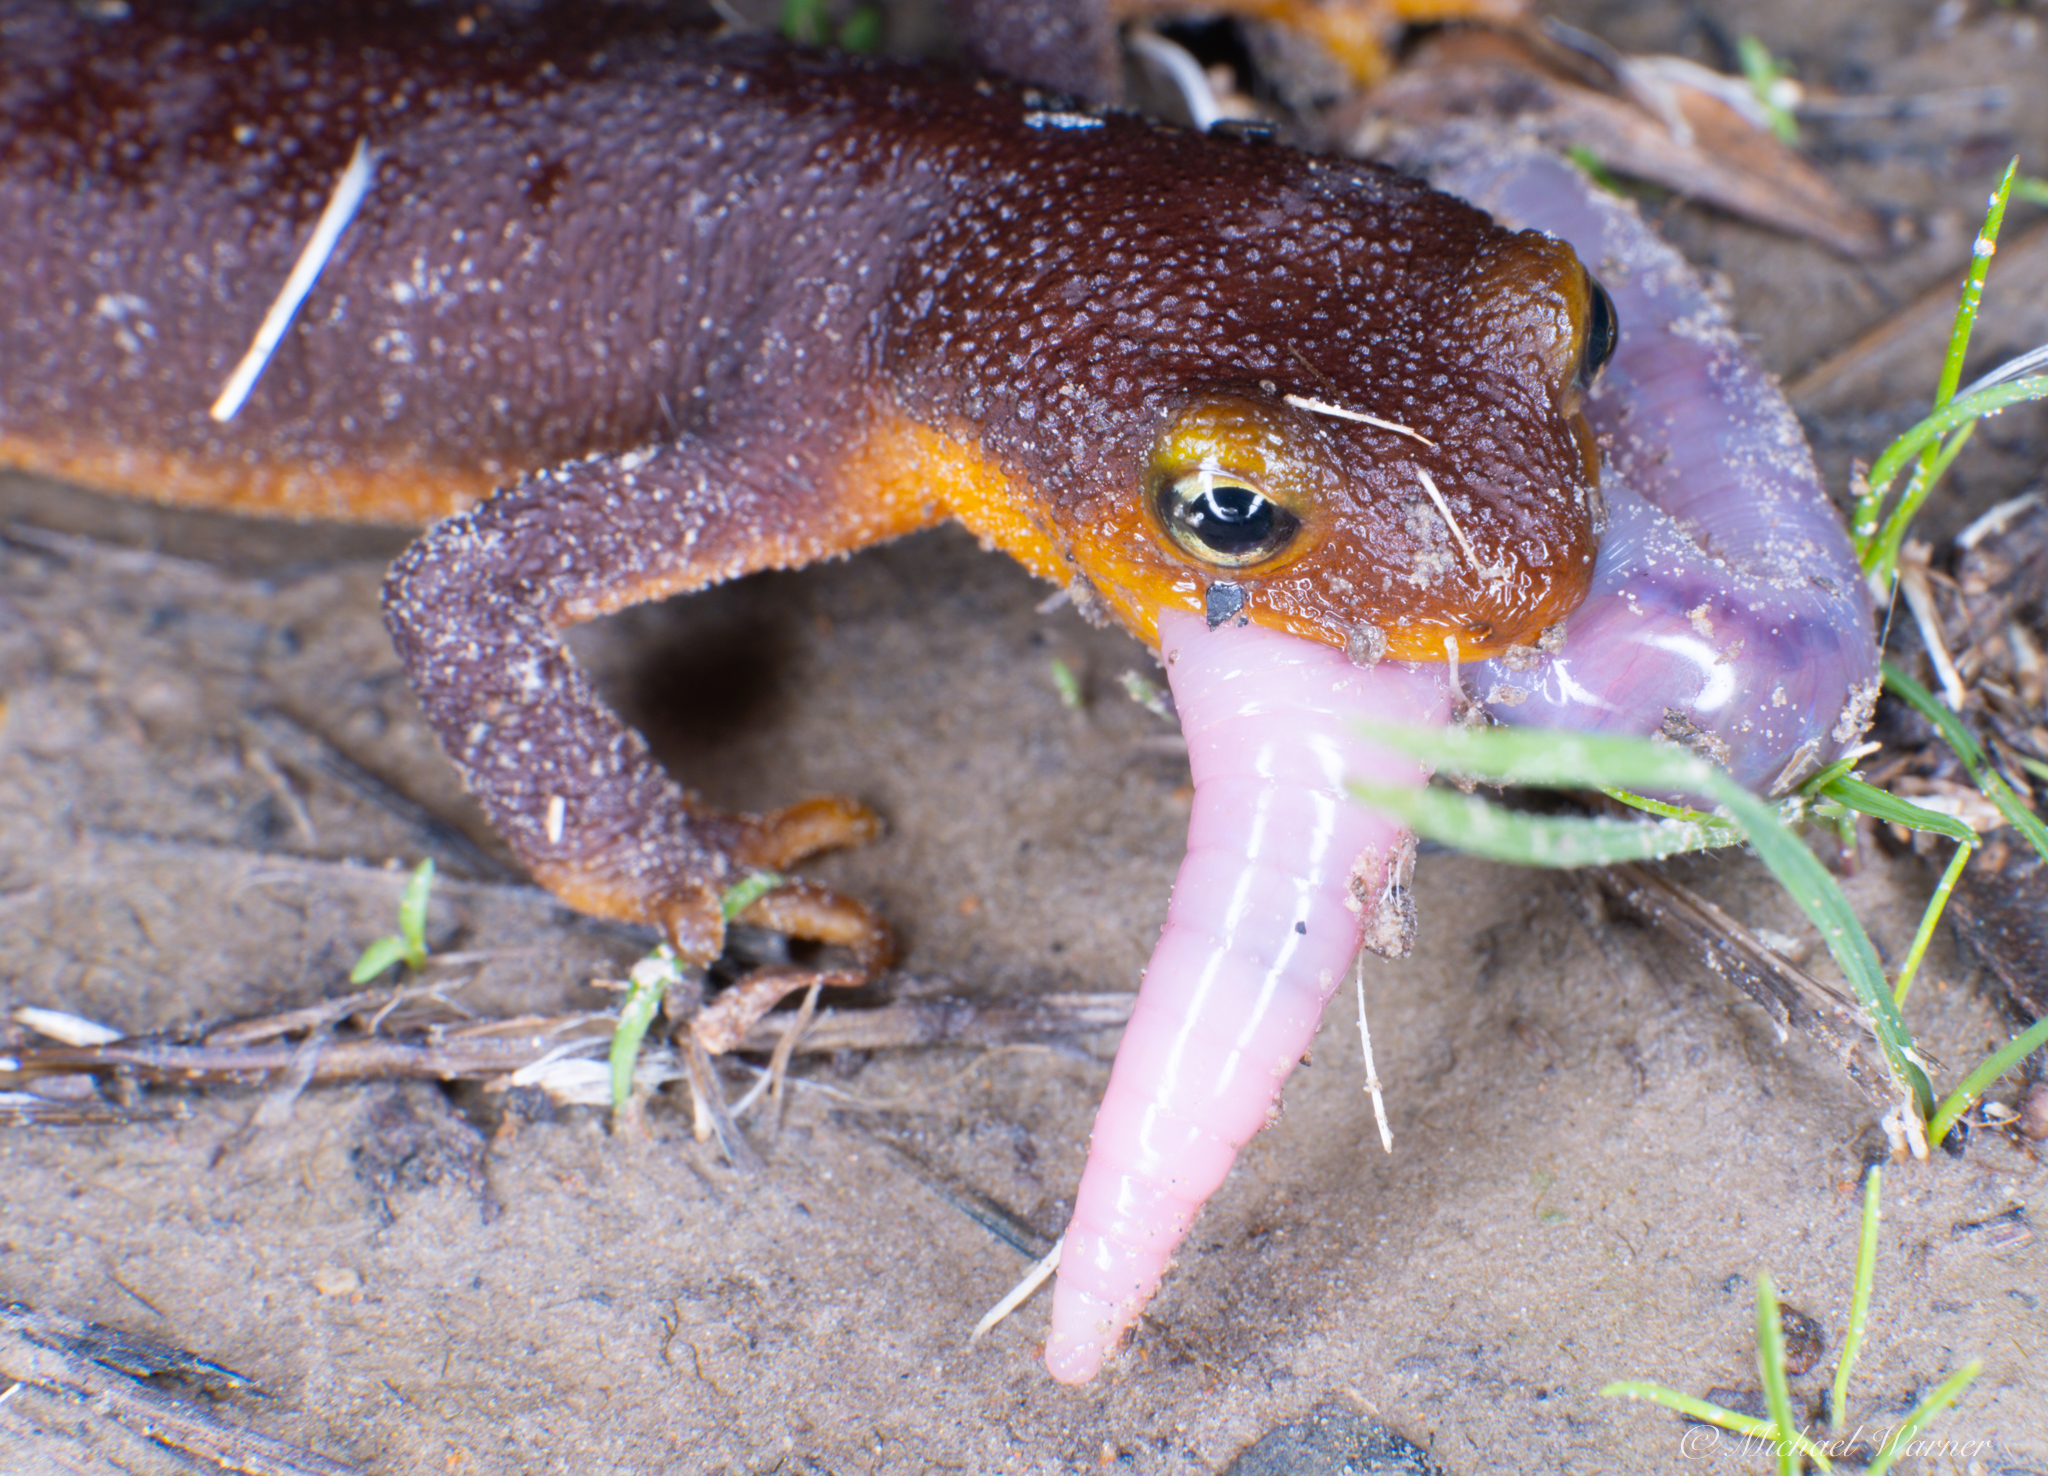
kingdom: Animalia
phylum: Chordata
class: Amphibia
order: Caudata
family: Salamandridae
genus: Taricha
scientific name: Taricha torosa
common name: California newt
